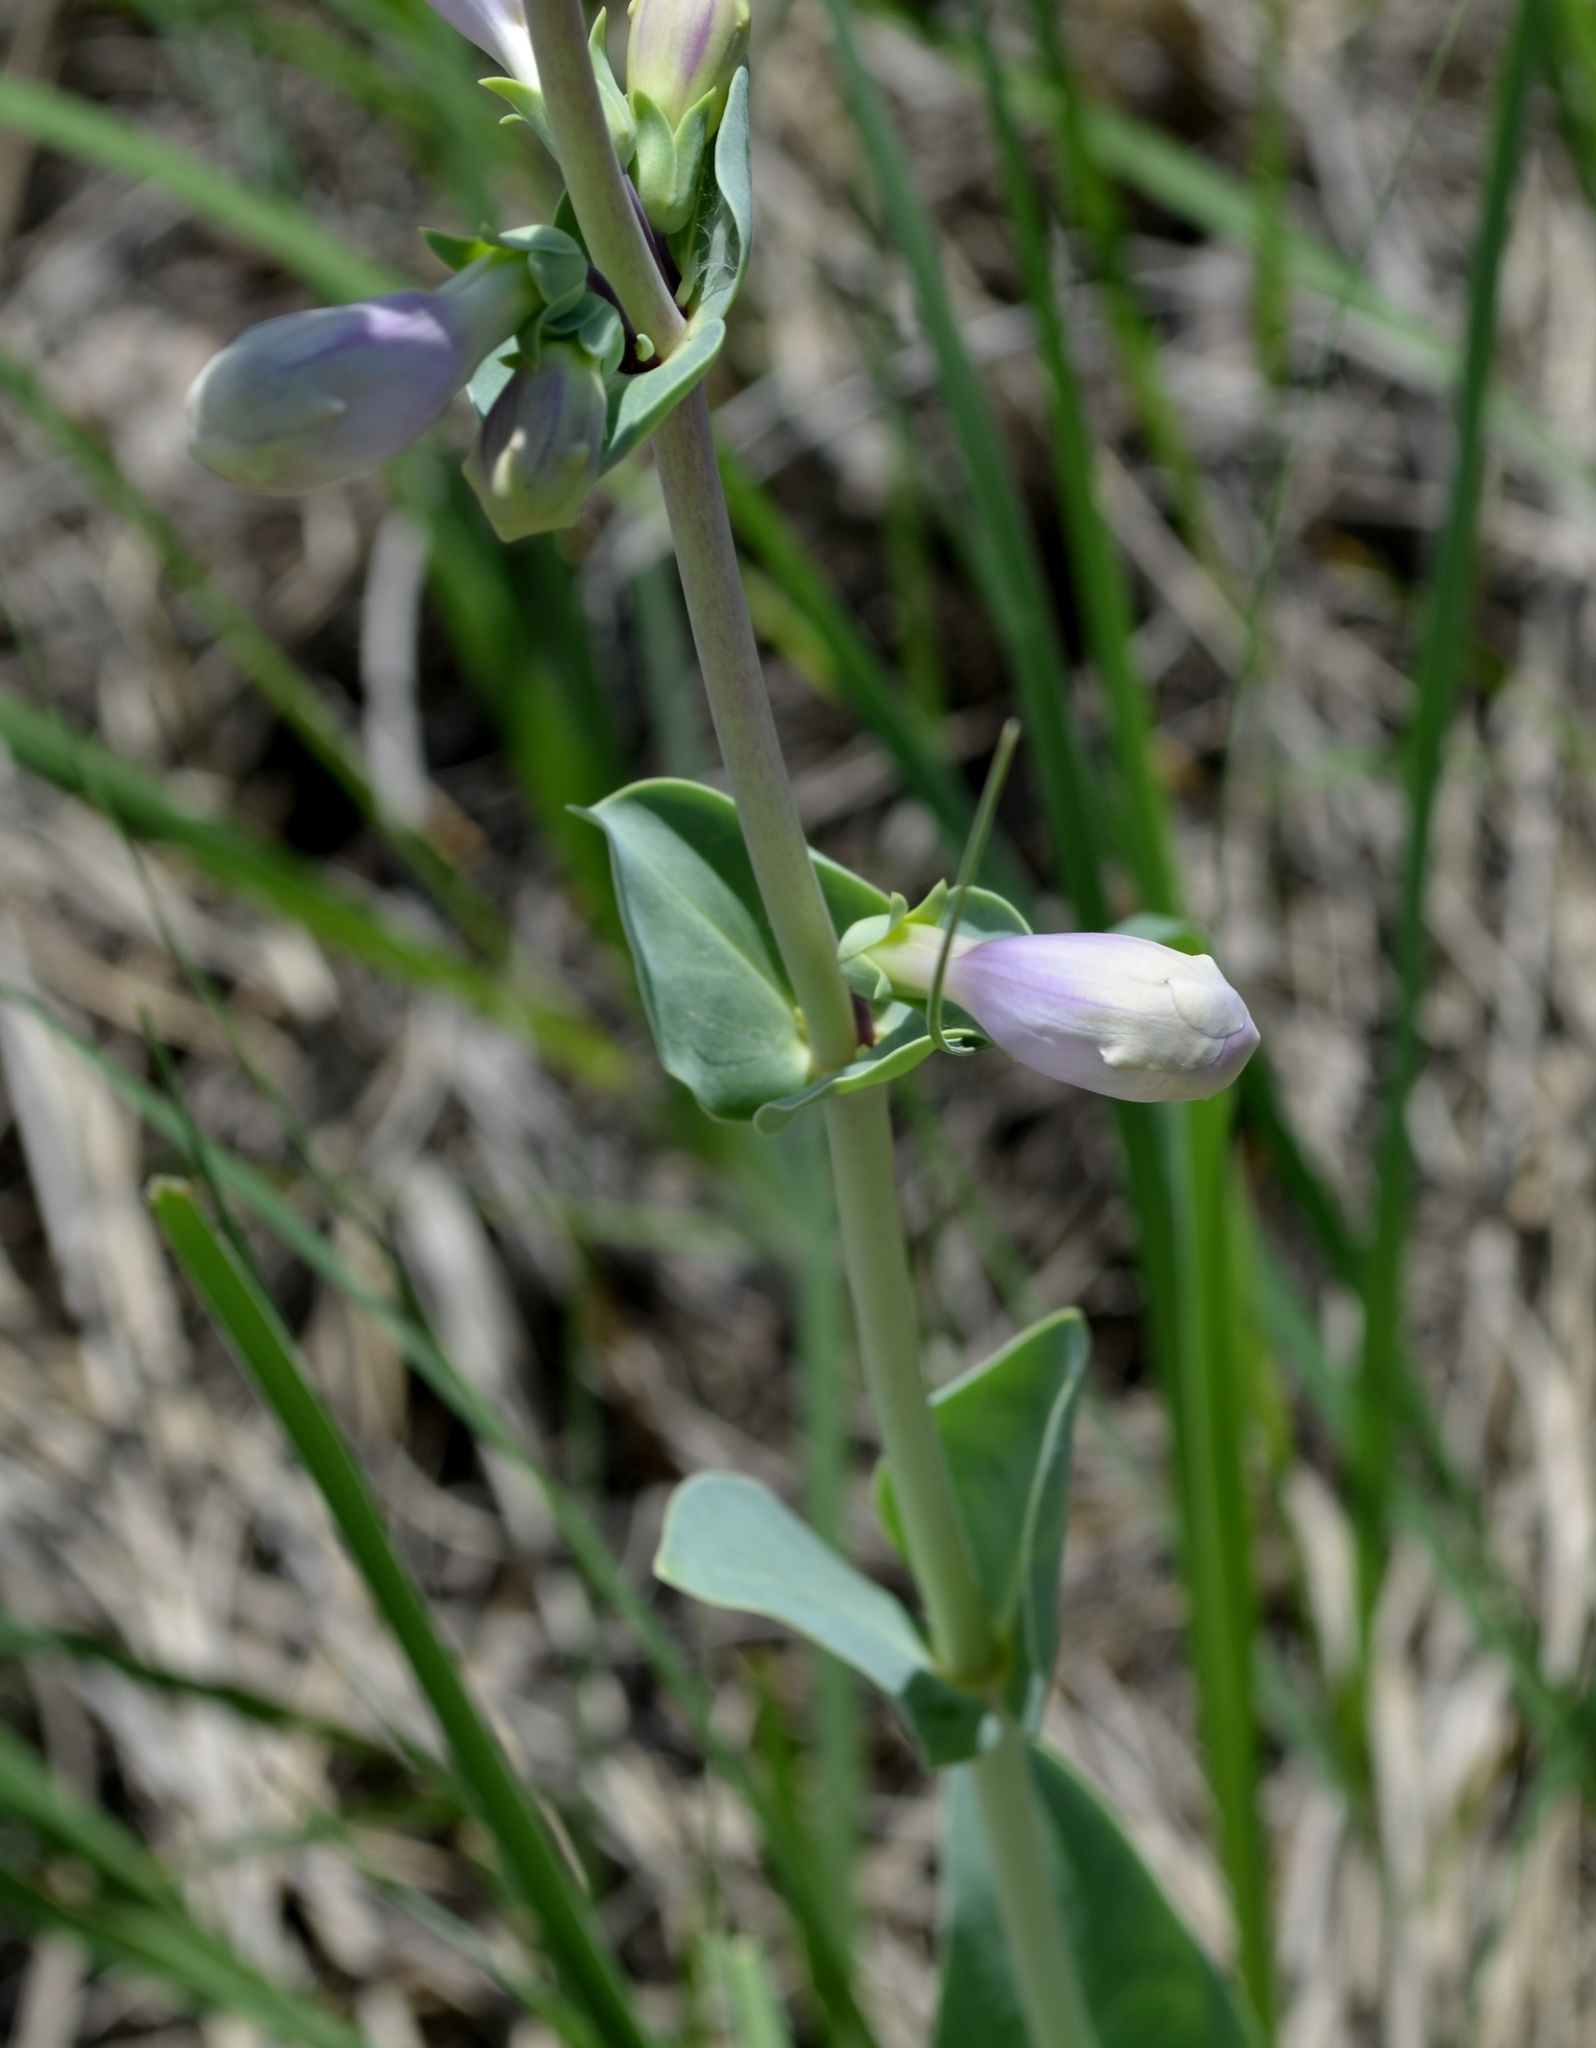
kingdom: Plantae
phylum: Tracheophyta
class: Magnoliopsida
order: Lamiales
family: Plantaginaceae
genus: Penstemon
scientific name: Penstemon
